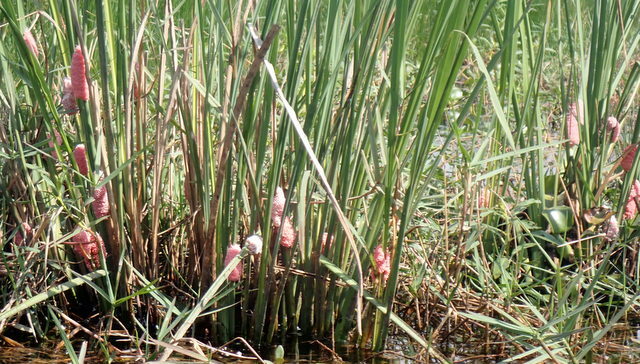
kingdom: Animalia
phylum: Mollusca
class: Gastropoda
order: Architaenioglossa
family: Ampullariidae
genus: Pomacea
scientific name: Pomacea maculata
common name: Giant applesnail
